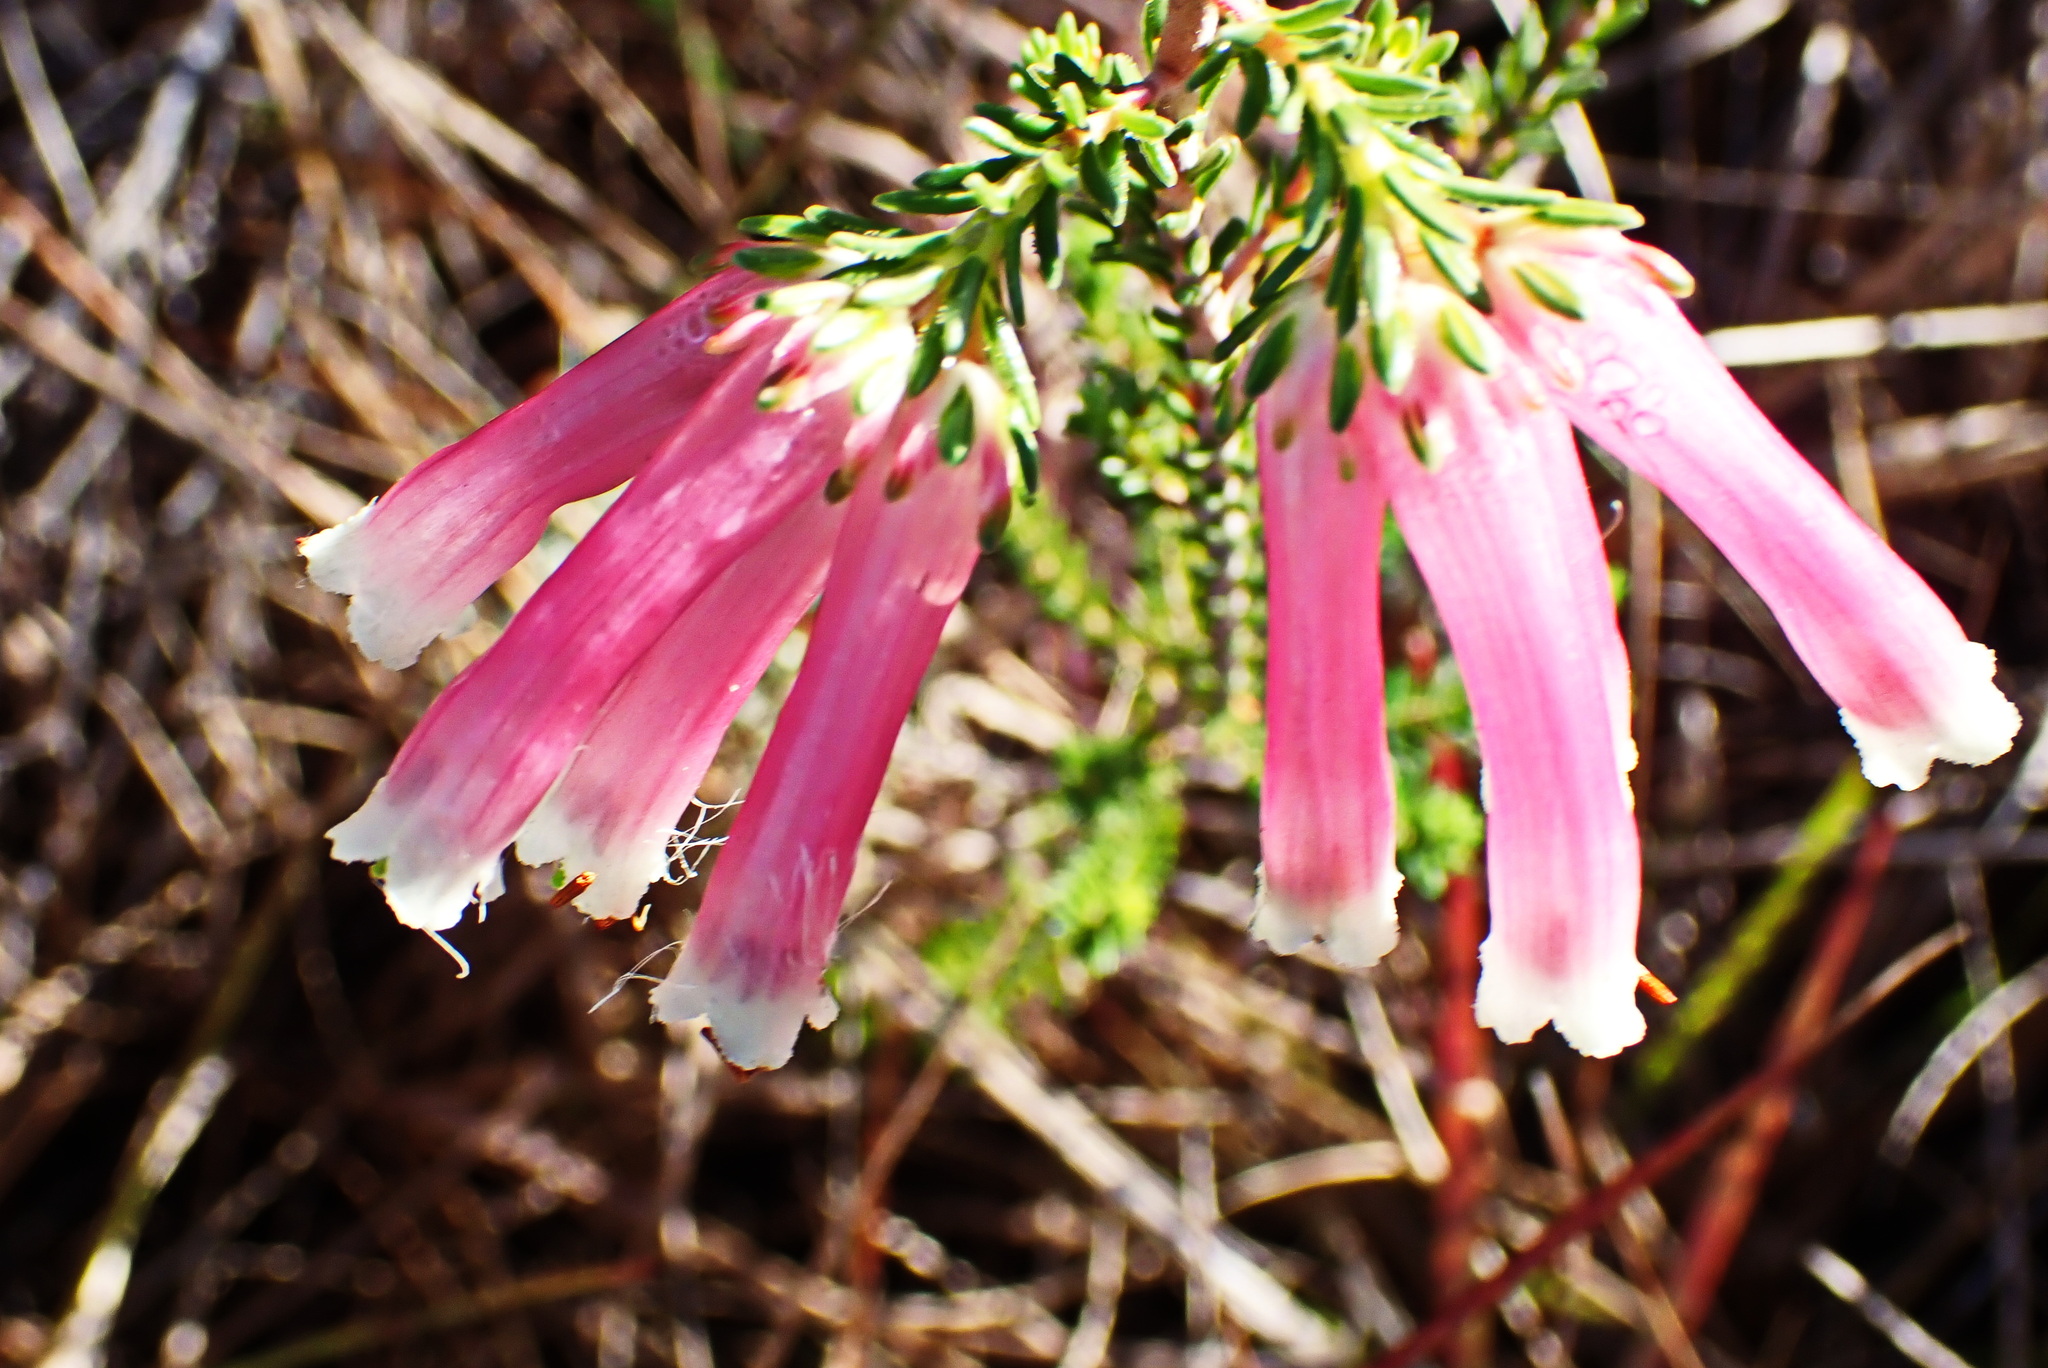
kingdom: Plantae
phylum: Tracheophyta
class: Magnoliopsida
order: Ericales
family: Ericaceae
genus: Erica
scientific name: Erica versicolor
